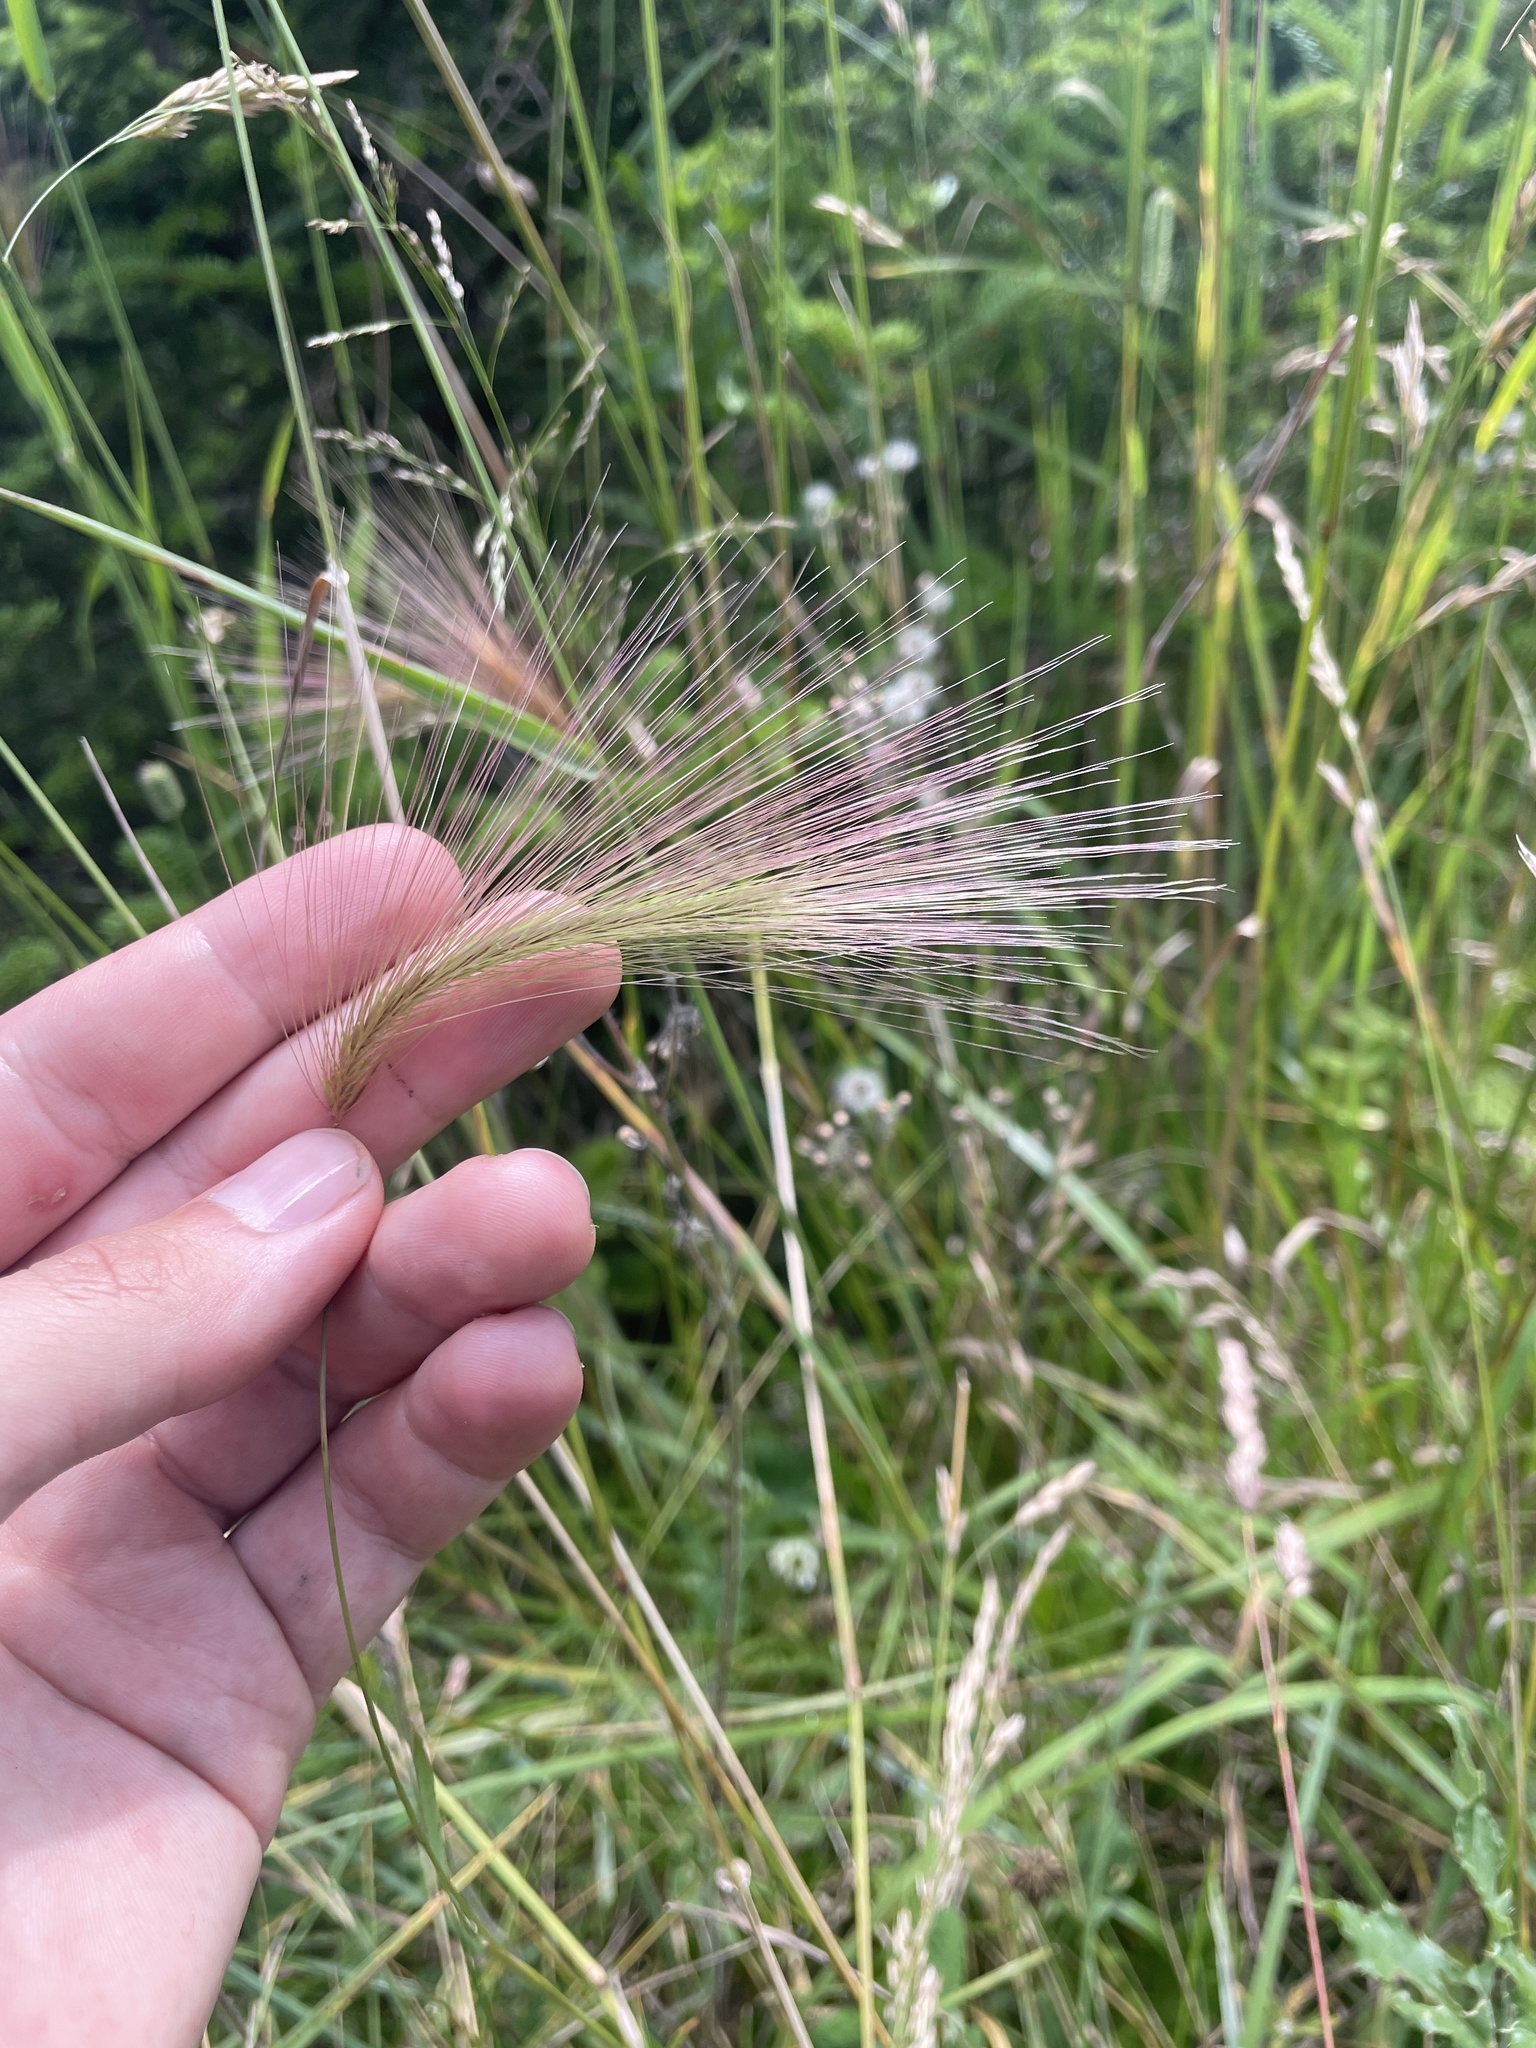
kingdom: Plantae
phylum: Tracheophyta
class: Liliopsida
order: Poales
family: Poaceae
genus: Hordeum
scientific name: Hordeum jubatum
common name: Foxtail barley
